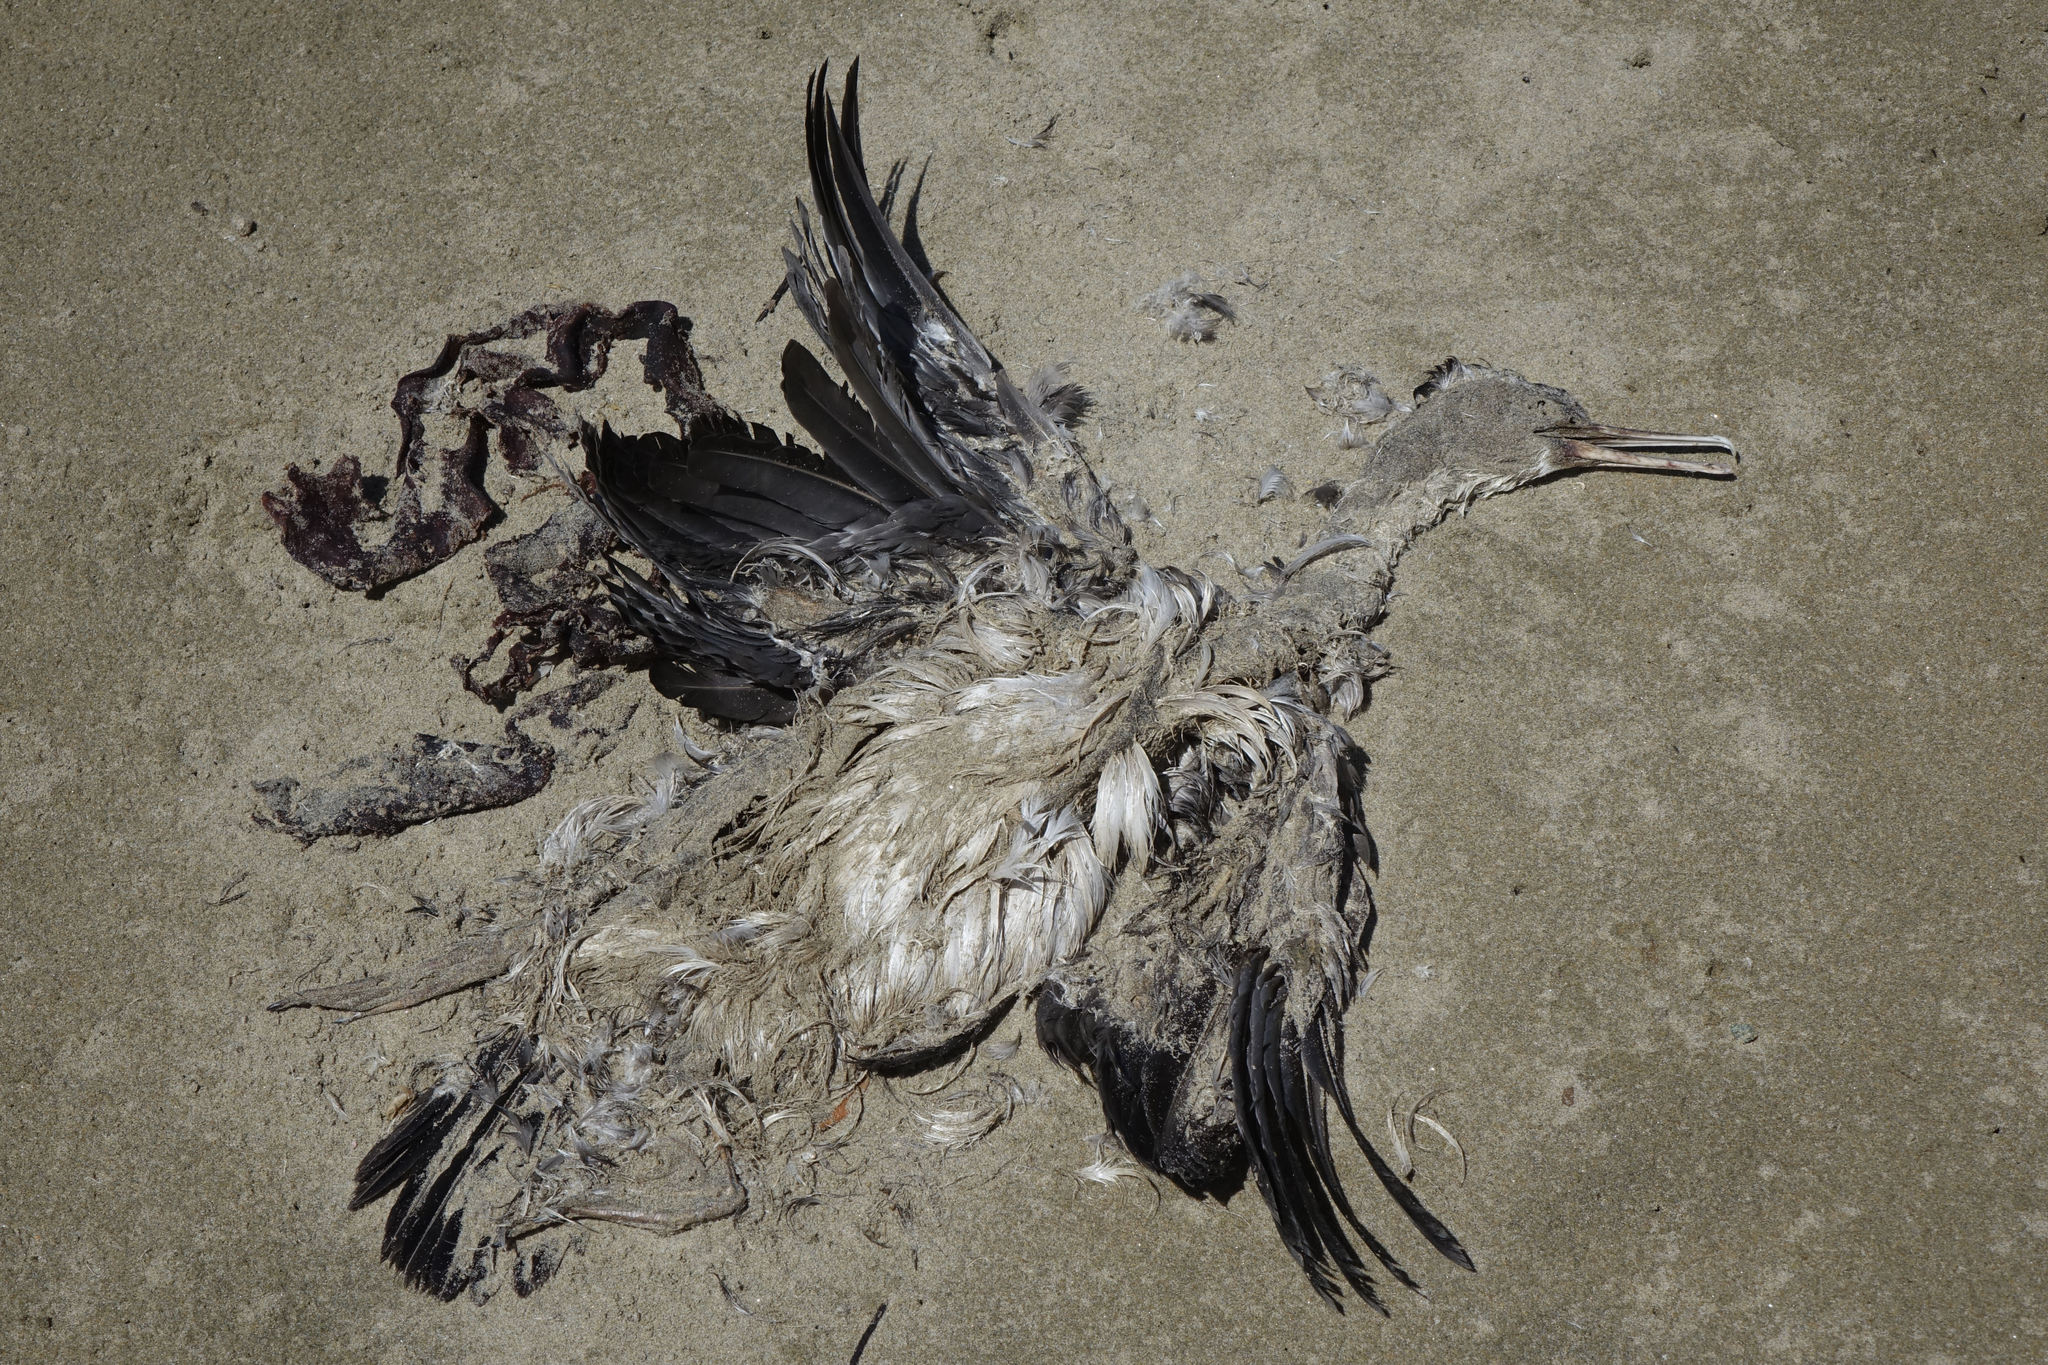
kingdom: Animalia
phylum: Chordata
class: Aves
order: Suliformes
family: Phalacrocoracidae
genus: Phalacrocorax
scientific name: Phalacrocorax punctatus
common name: Spotted shag
